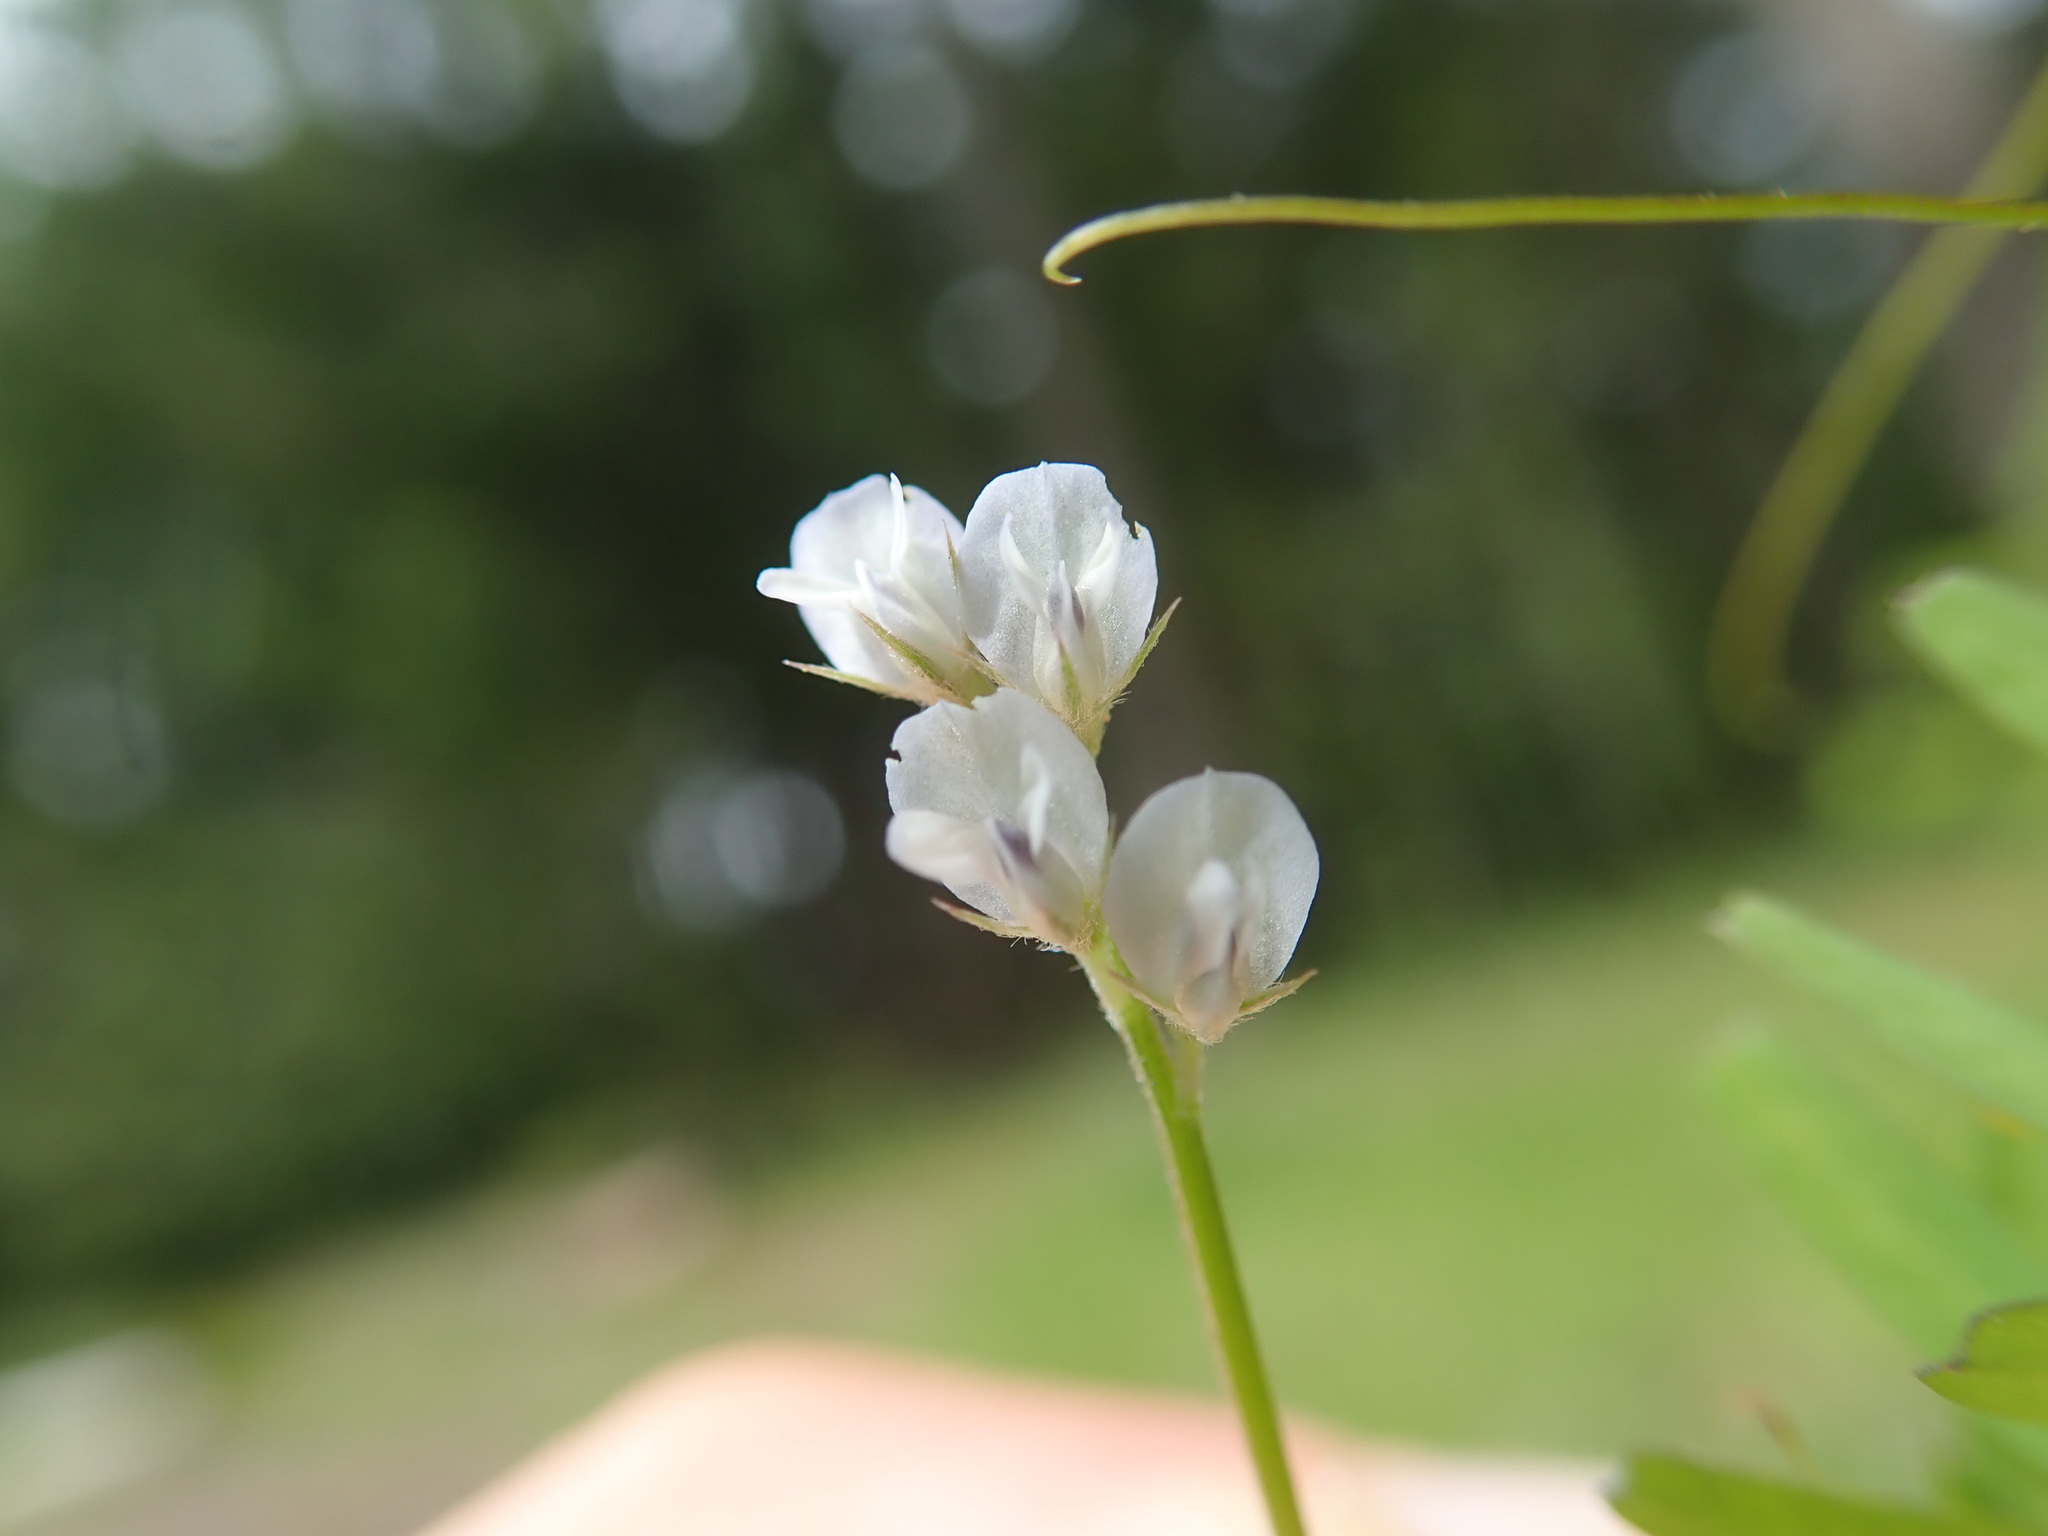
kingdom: Plantae
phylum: Tracheophyta
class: Magnoliopsida
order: Fabales
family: Fabaceae
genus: Vicia
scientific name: Vicia hirsuta
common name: Tiny vetch
